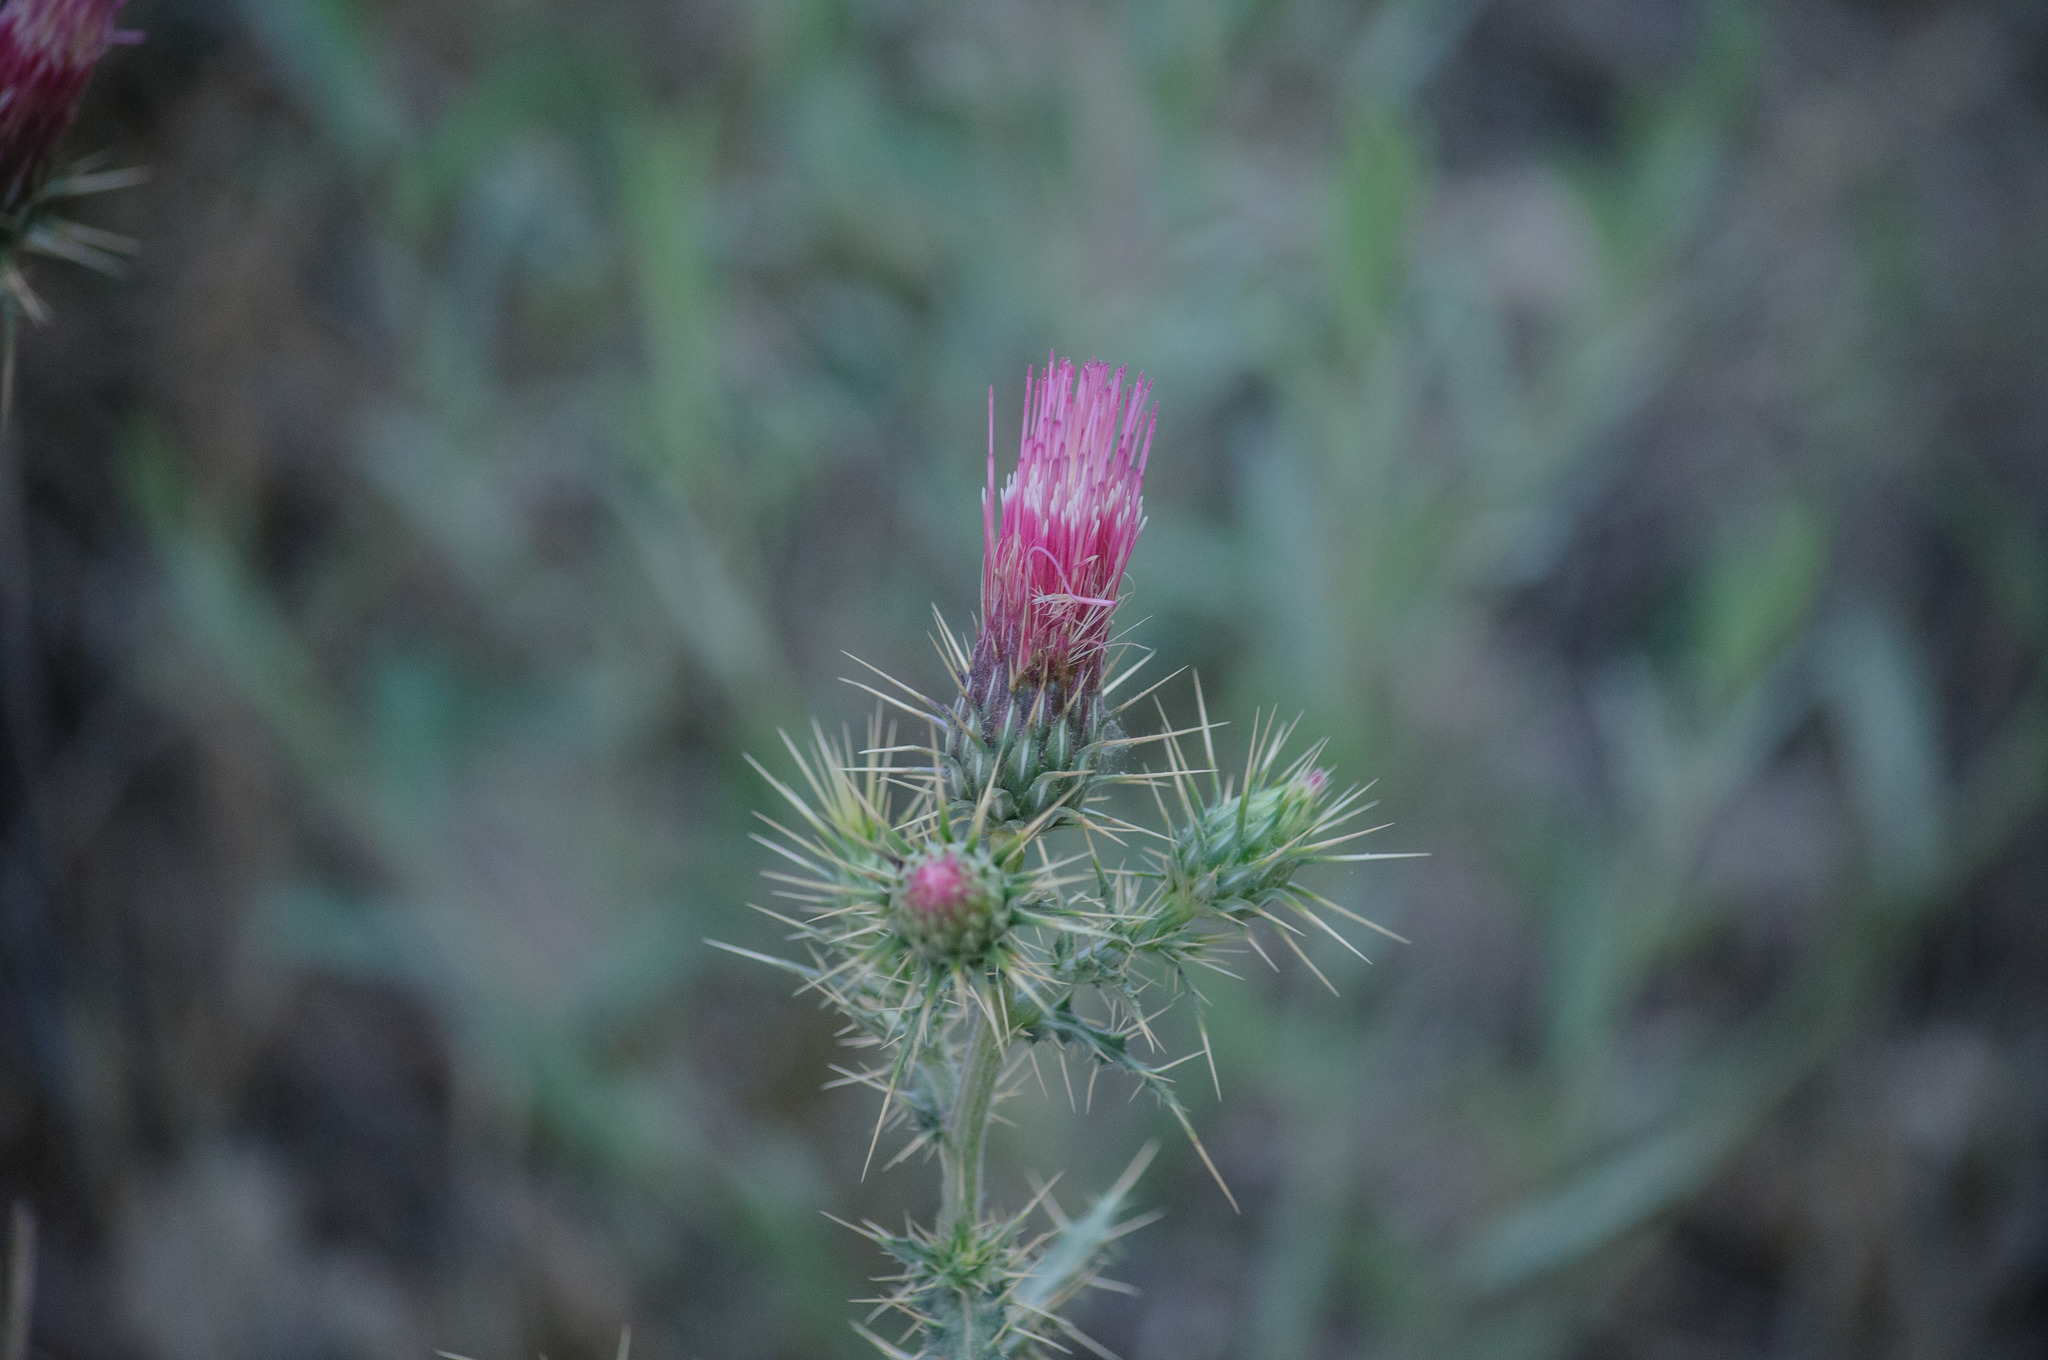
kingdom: Plantae
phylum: Tracheophyta
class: Magnoliopsida
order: Asterales
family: Asteraceae
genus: Cirsium
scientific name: Cirsium arizonicum
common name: Arizona thistle
